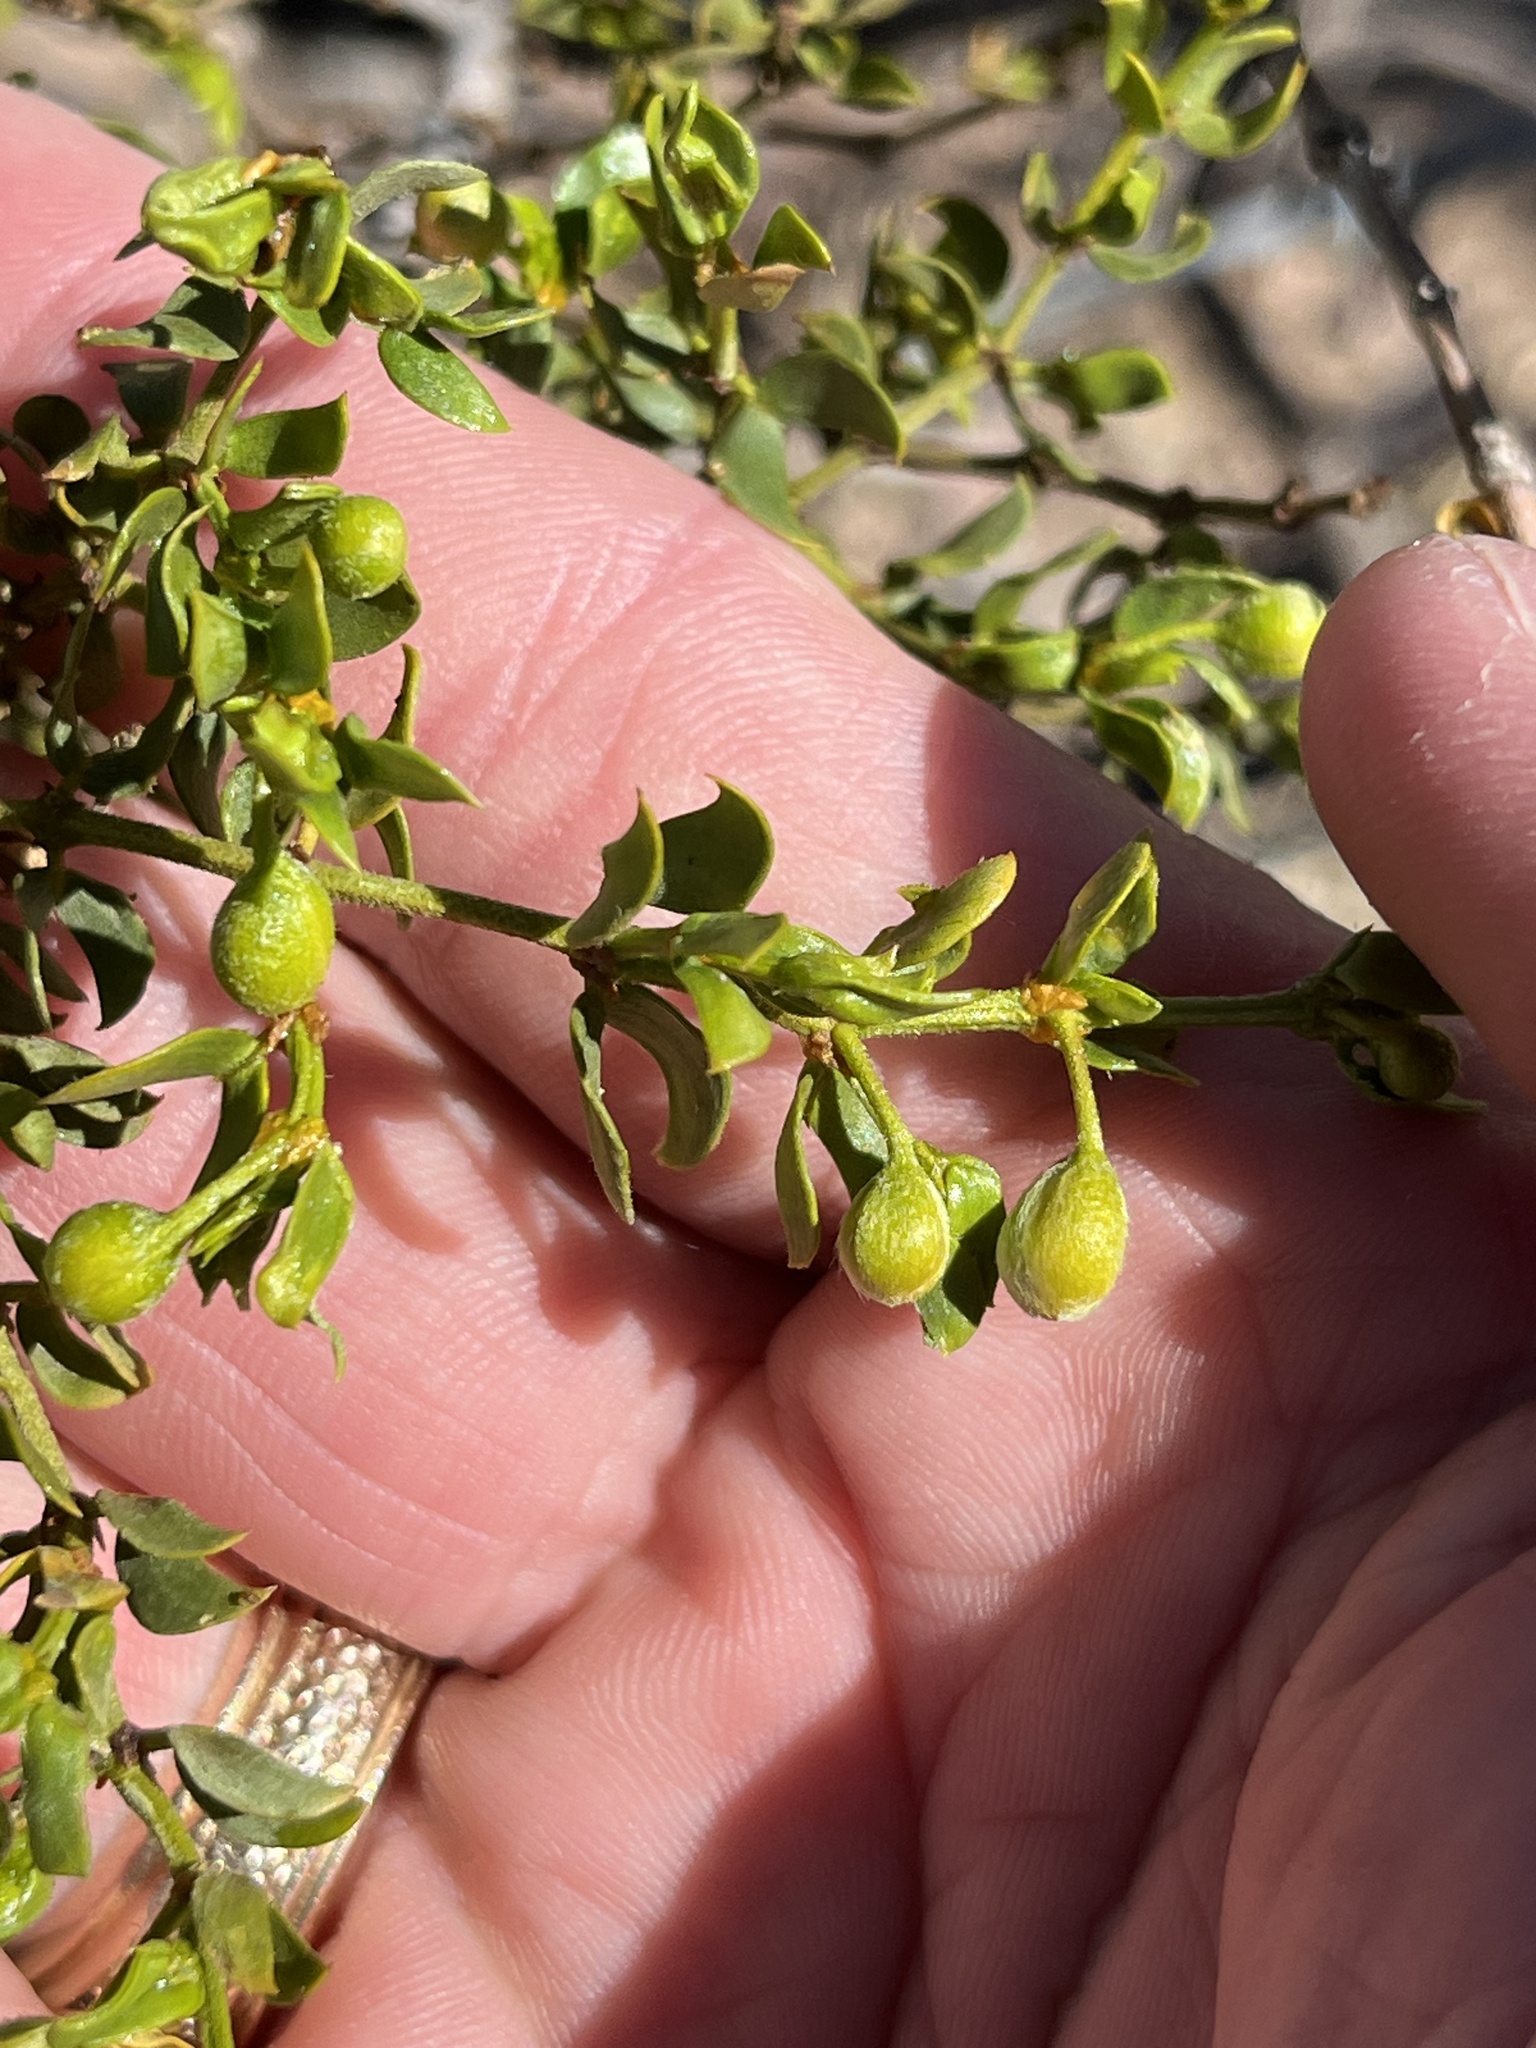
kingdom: Plantae
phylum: Tracheophyta
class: Magnoliopsida
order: Zygophyllales
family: Zygophyllaceae
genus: Larrea
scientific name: Larrea tridentata
